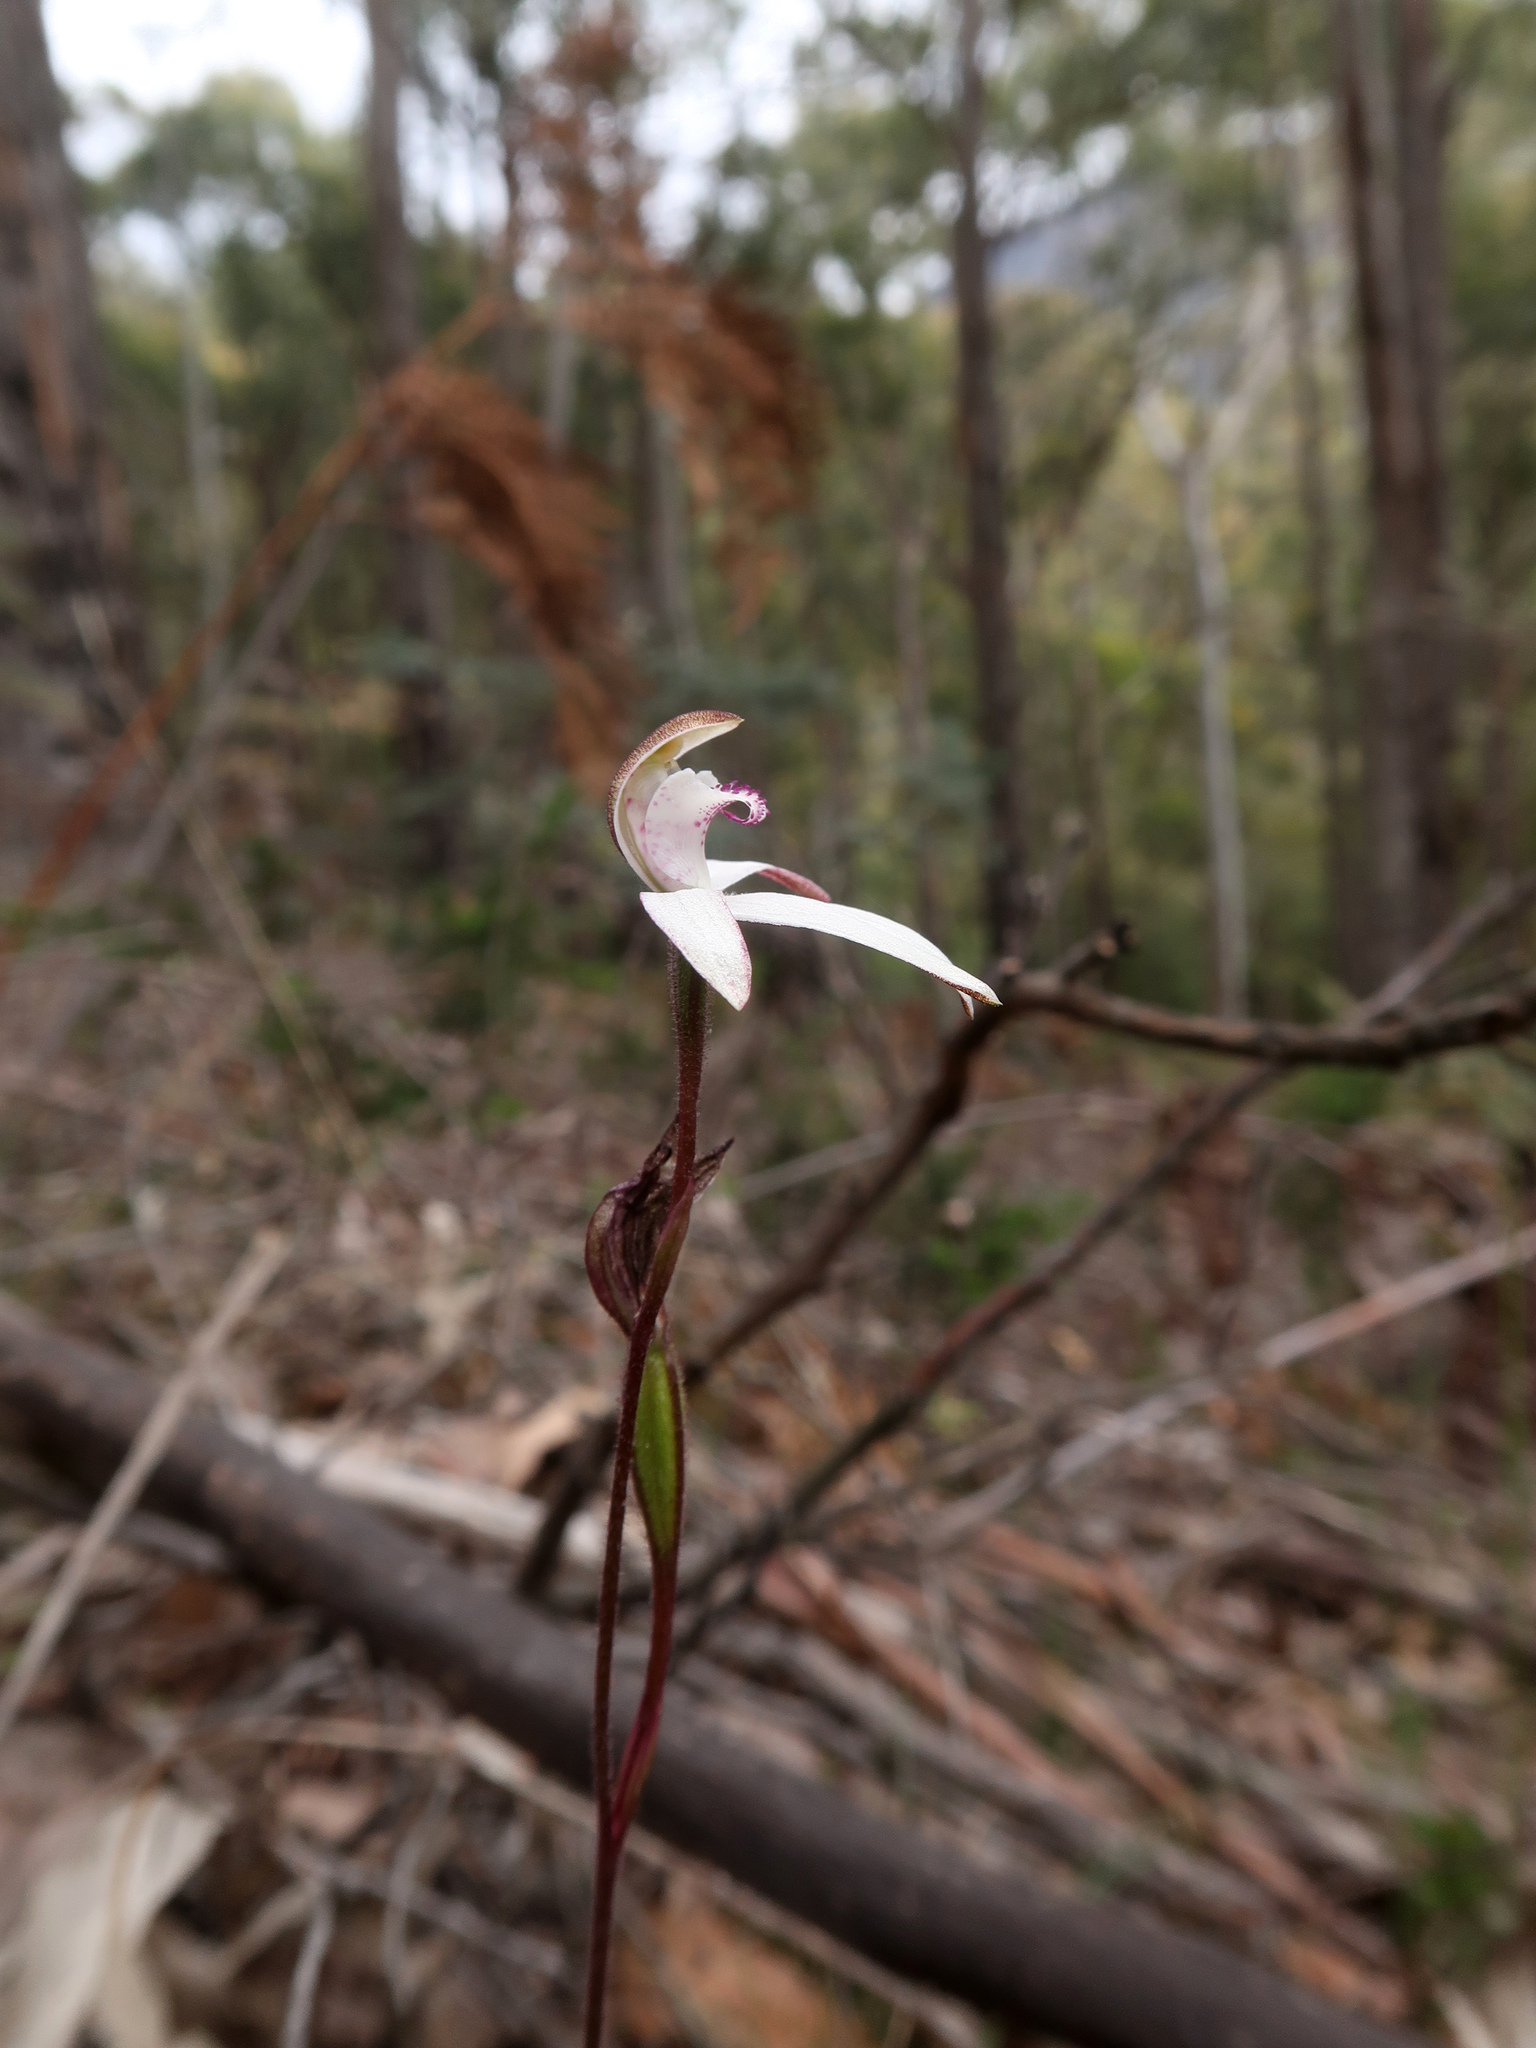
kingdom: Plantae
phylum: Tracheophyta
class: Liliopsida
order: Asparagales
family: Orchidaceae
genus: Caladenia
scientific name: Caladenia gracilis
